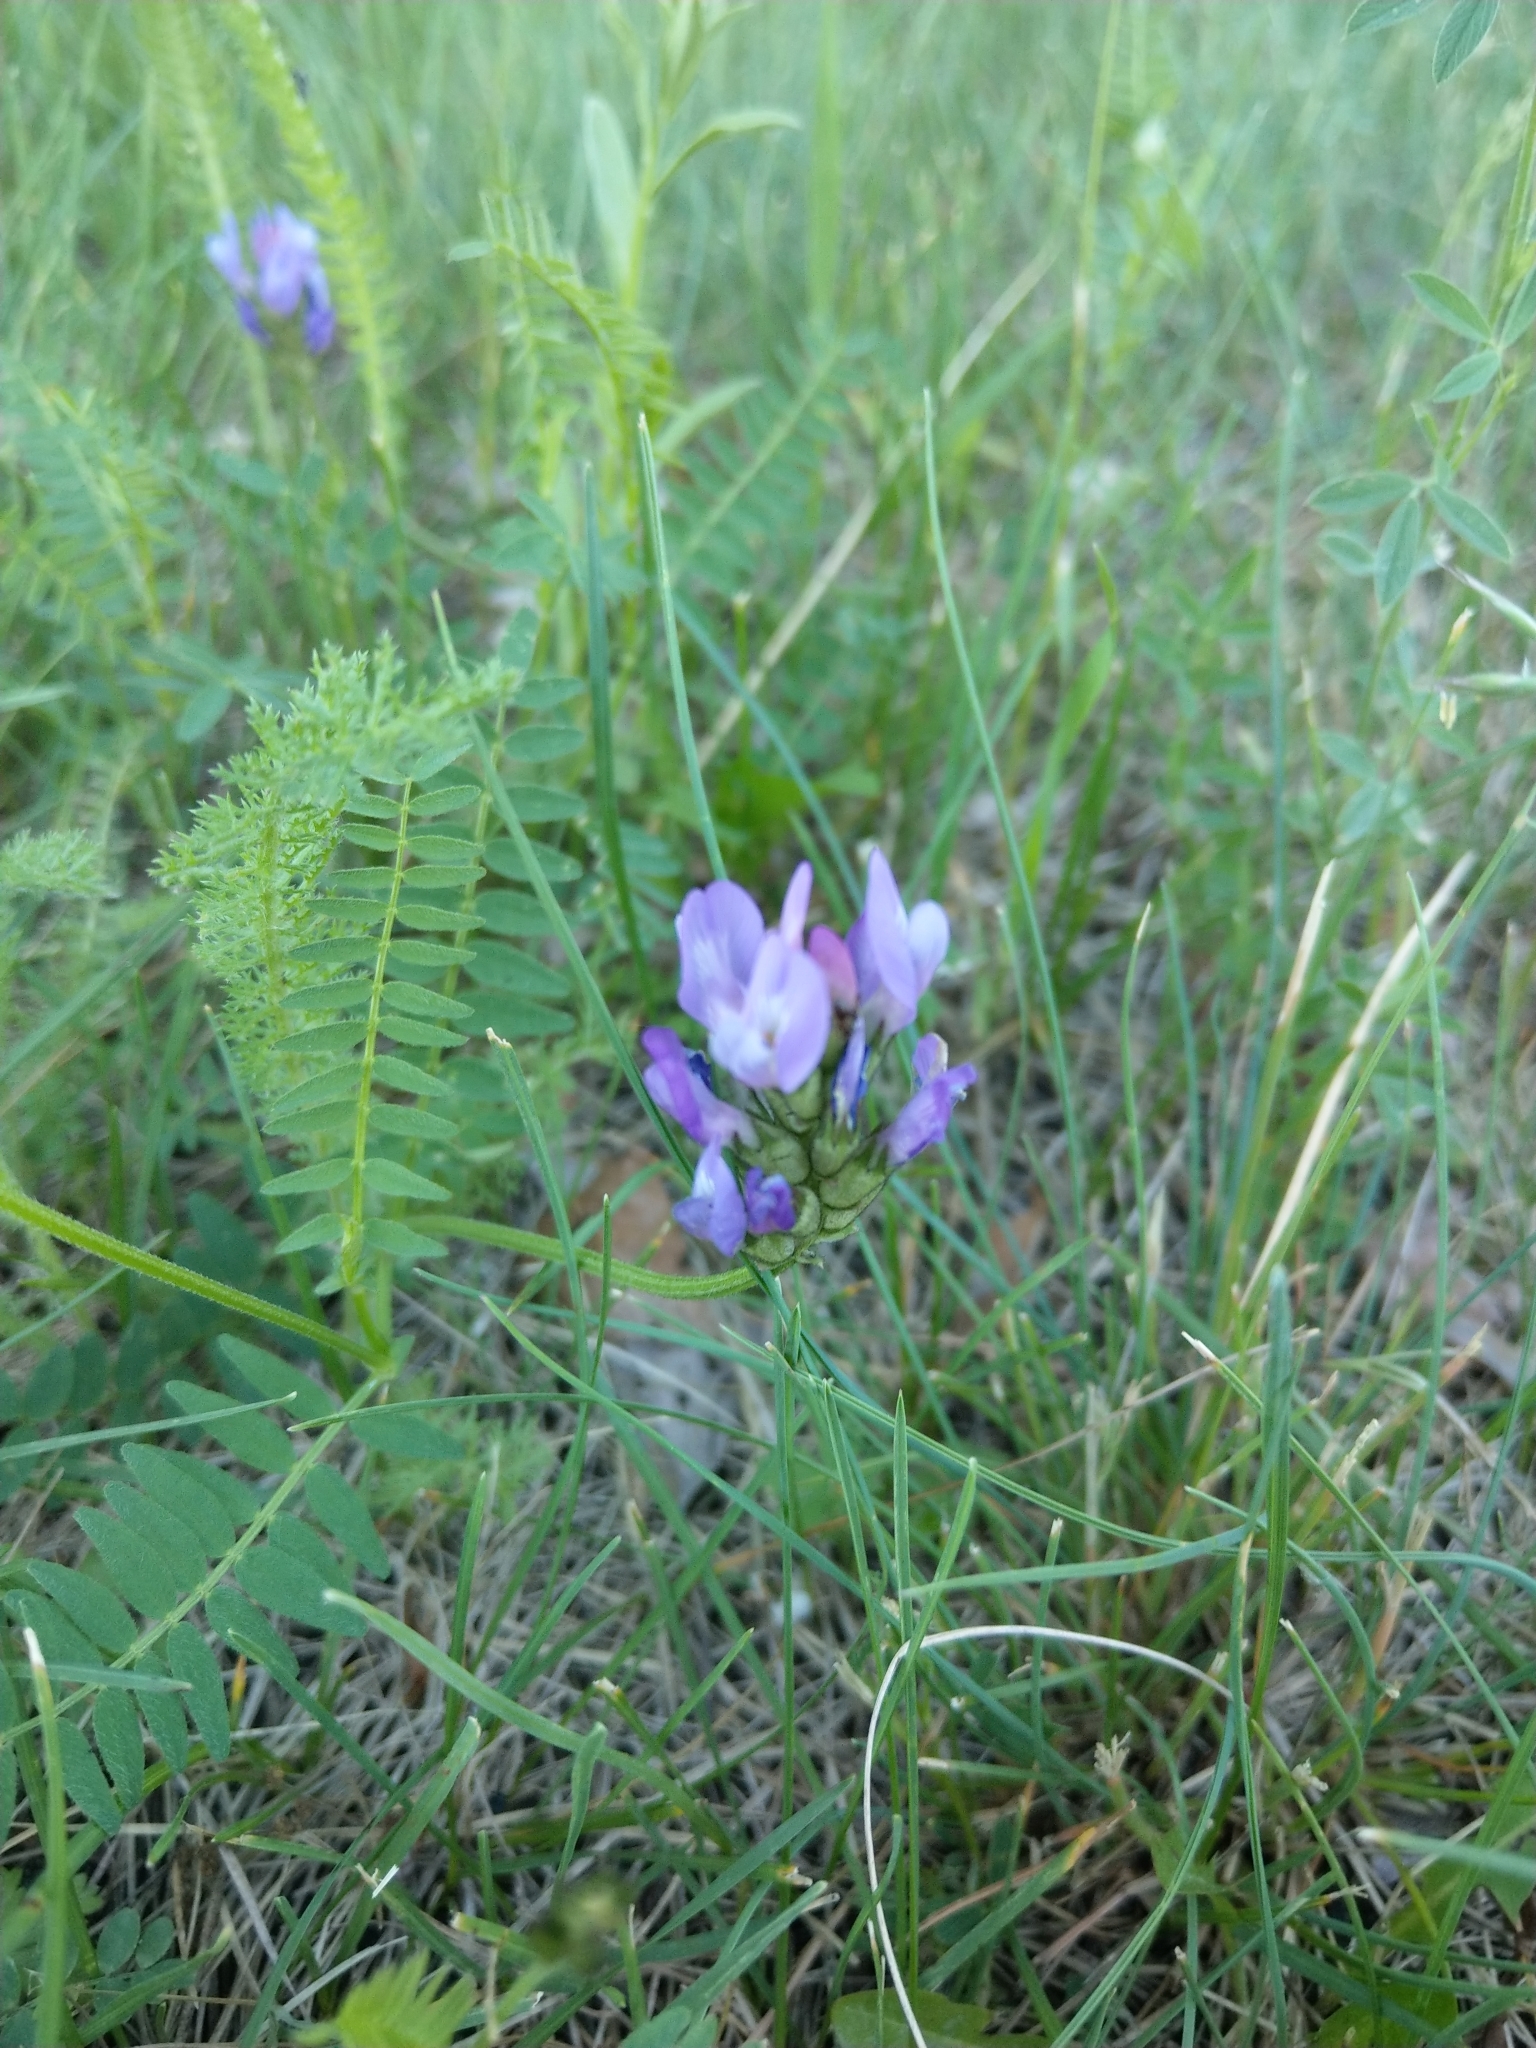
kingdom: Plantae
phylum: Tracheophyta
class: Magnoliopsida
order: Fabales
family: Fabaceae
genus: Astragalus
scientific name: Astragalus danicus
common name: Purple milk-vetch
